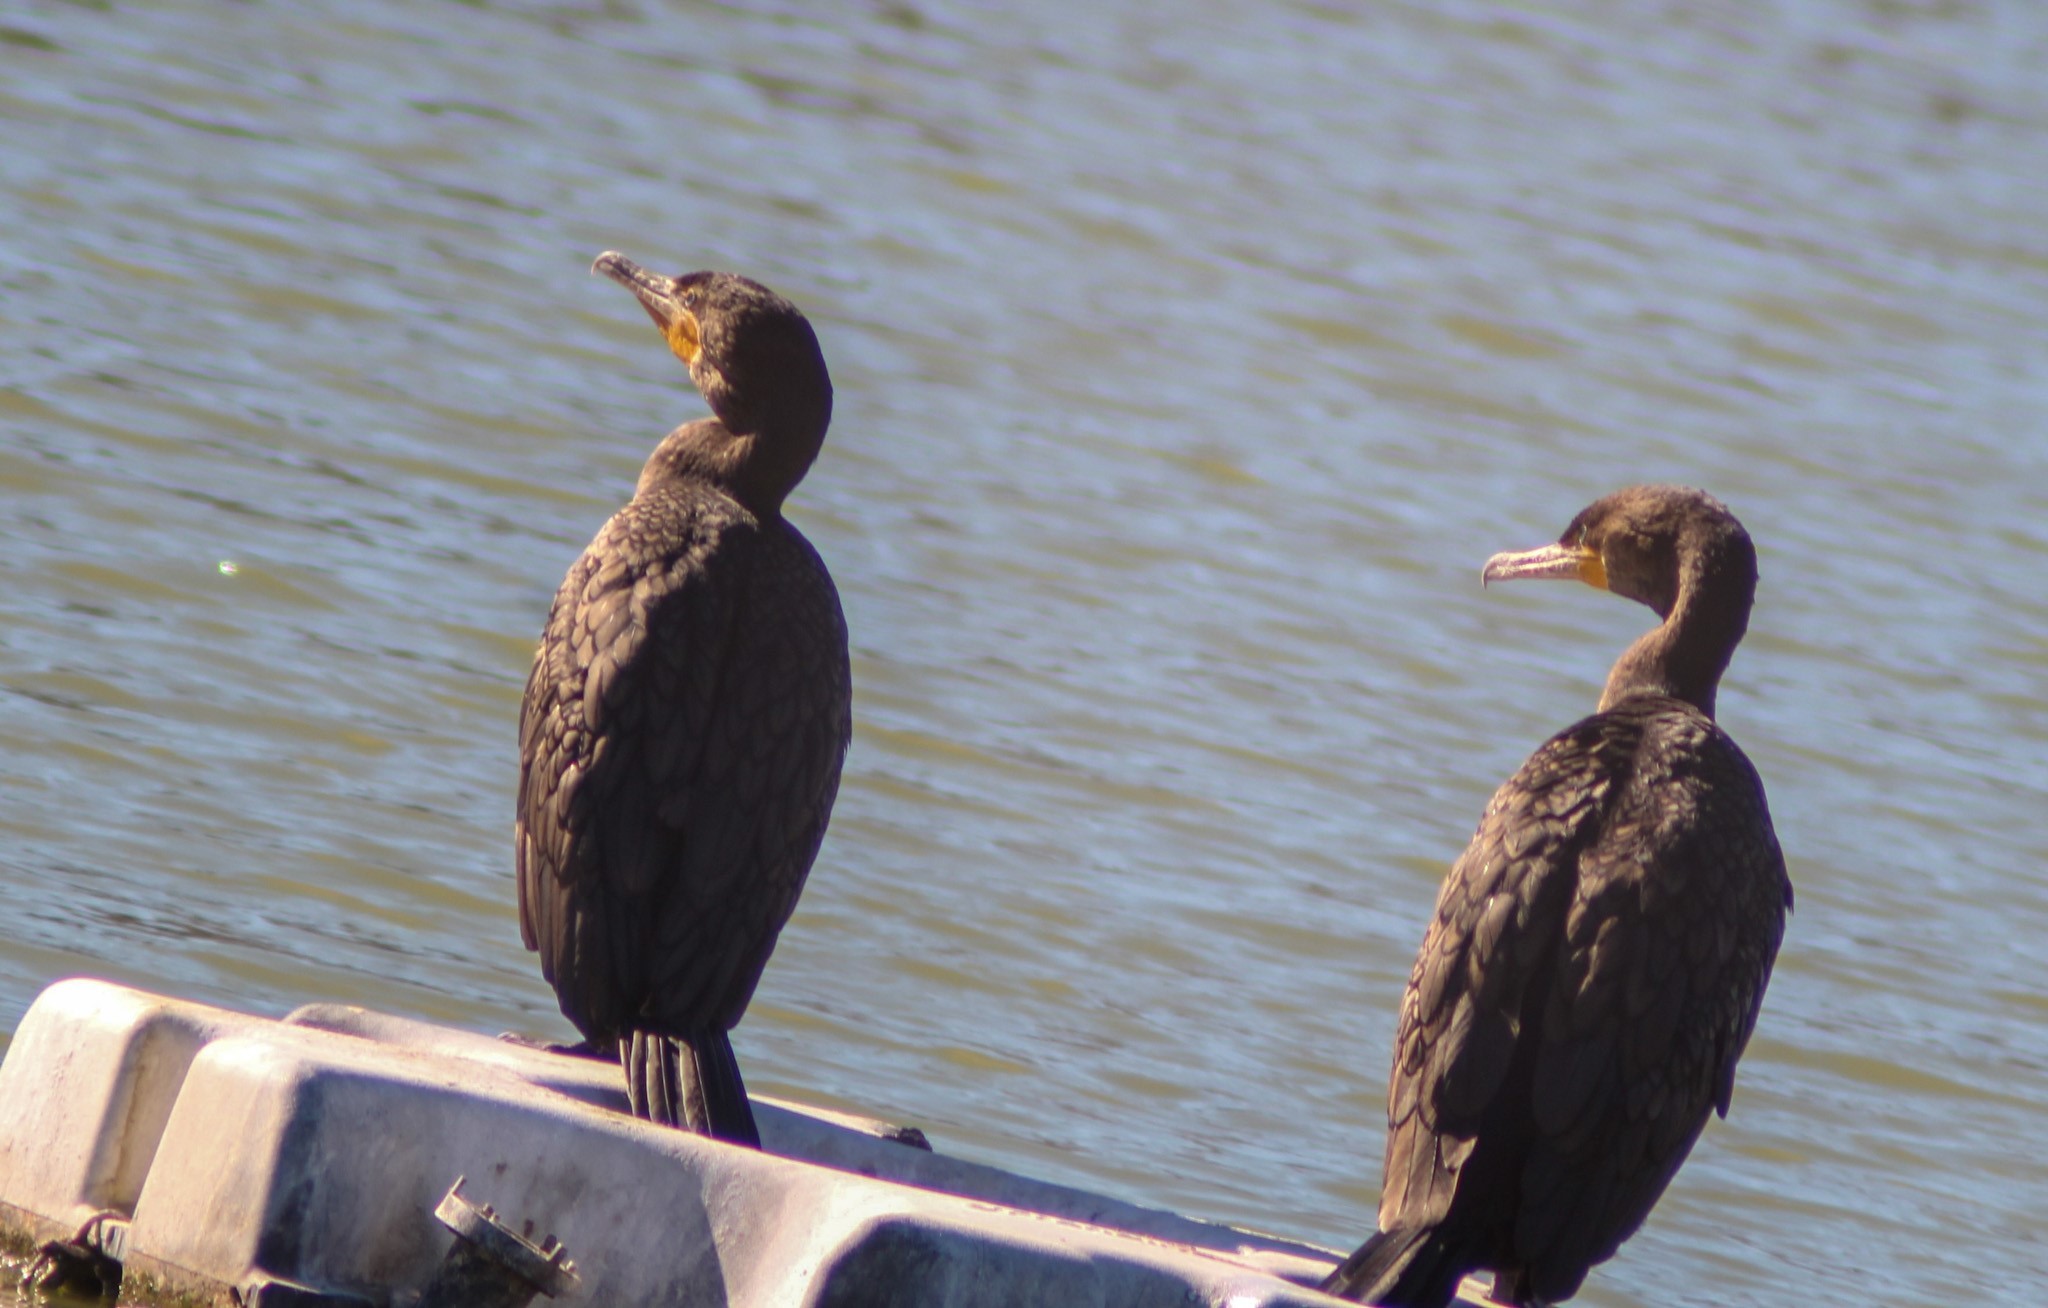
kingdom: Animalia
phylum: Chordata
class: Aves
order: Suliformes
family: Phalacrocoracidae
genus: Phalacrocorax
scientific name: Phalacrocorax auritus
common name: Double-crested cormorant
